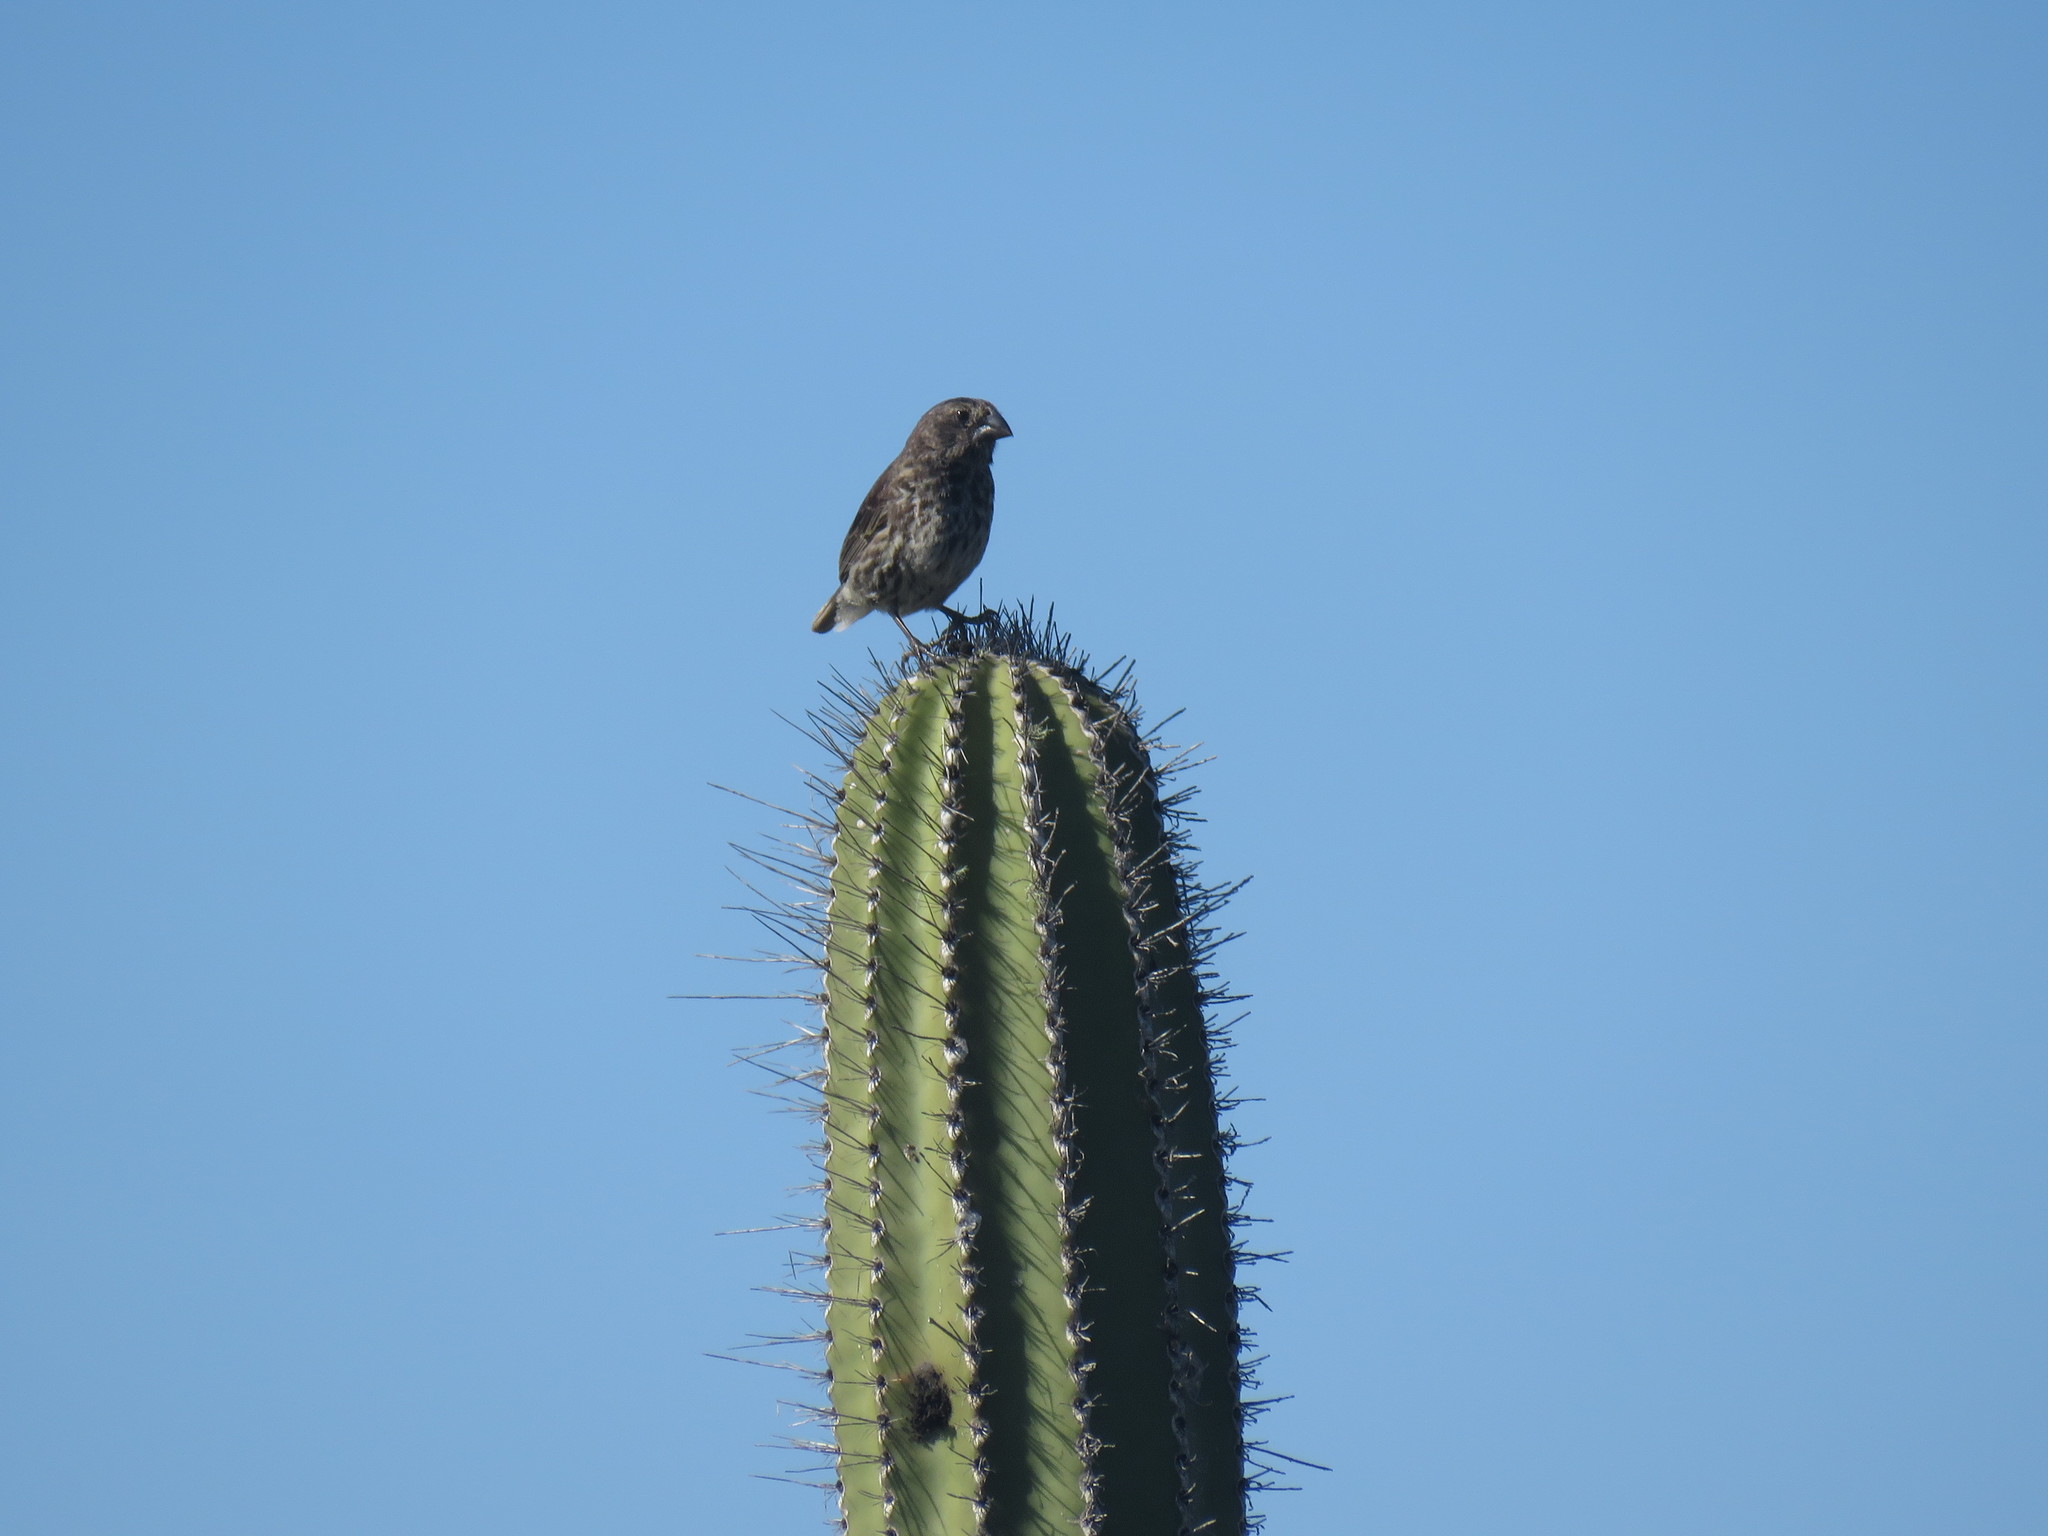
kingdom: Animalia
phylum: Chordata
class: Aves
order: Passeriformes
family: Thraupidae
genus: Geospiza
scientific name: Geospiza fortis
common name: Medium ground finch
